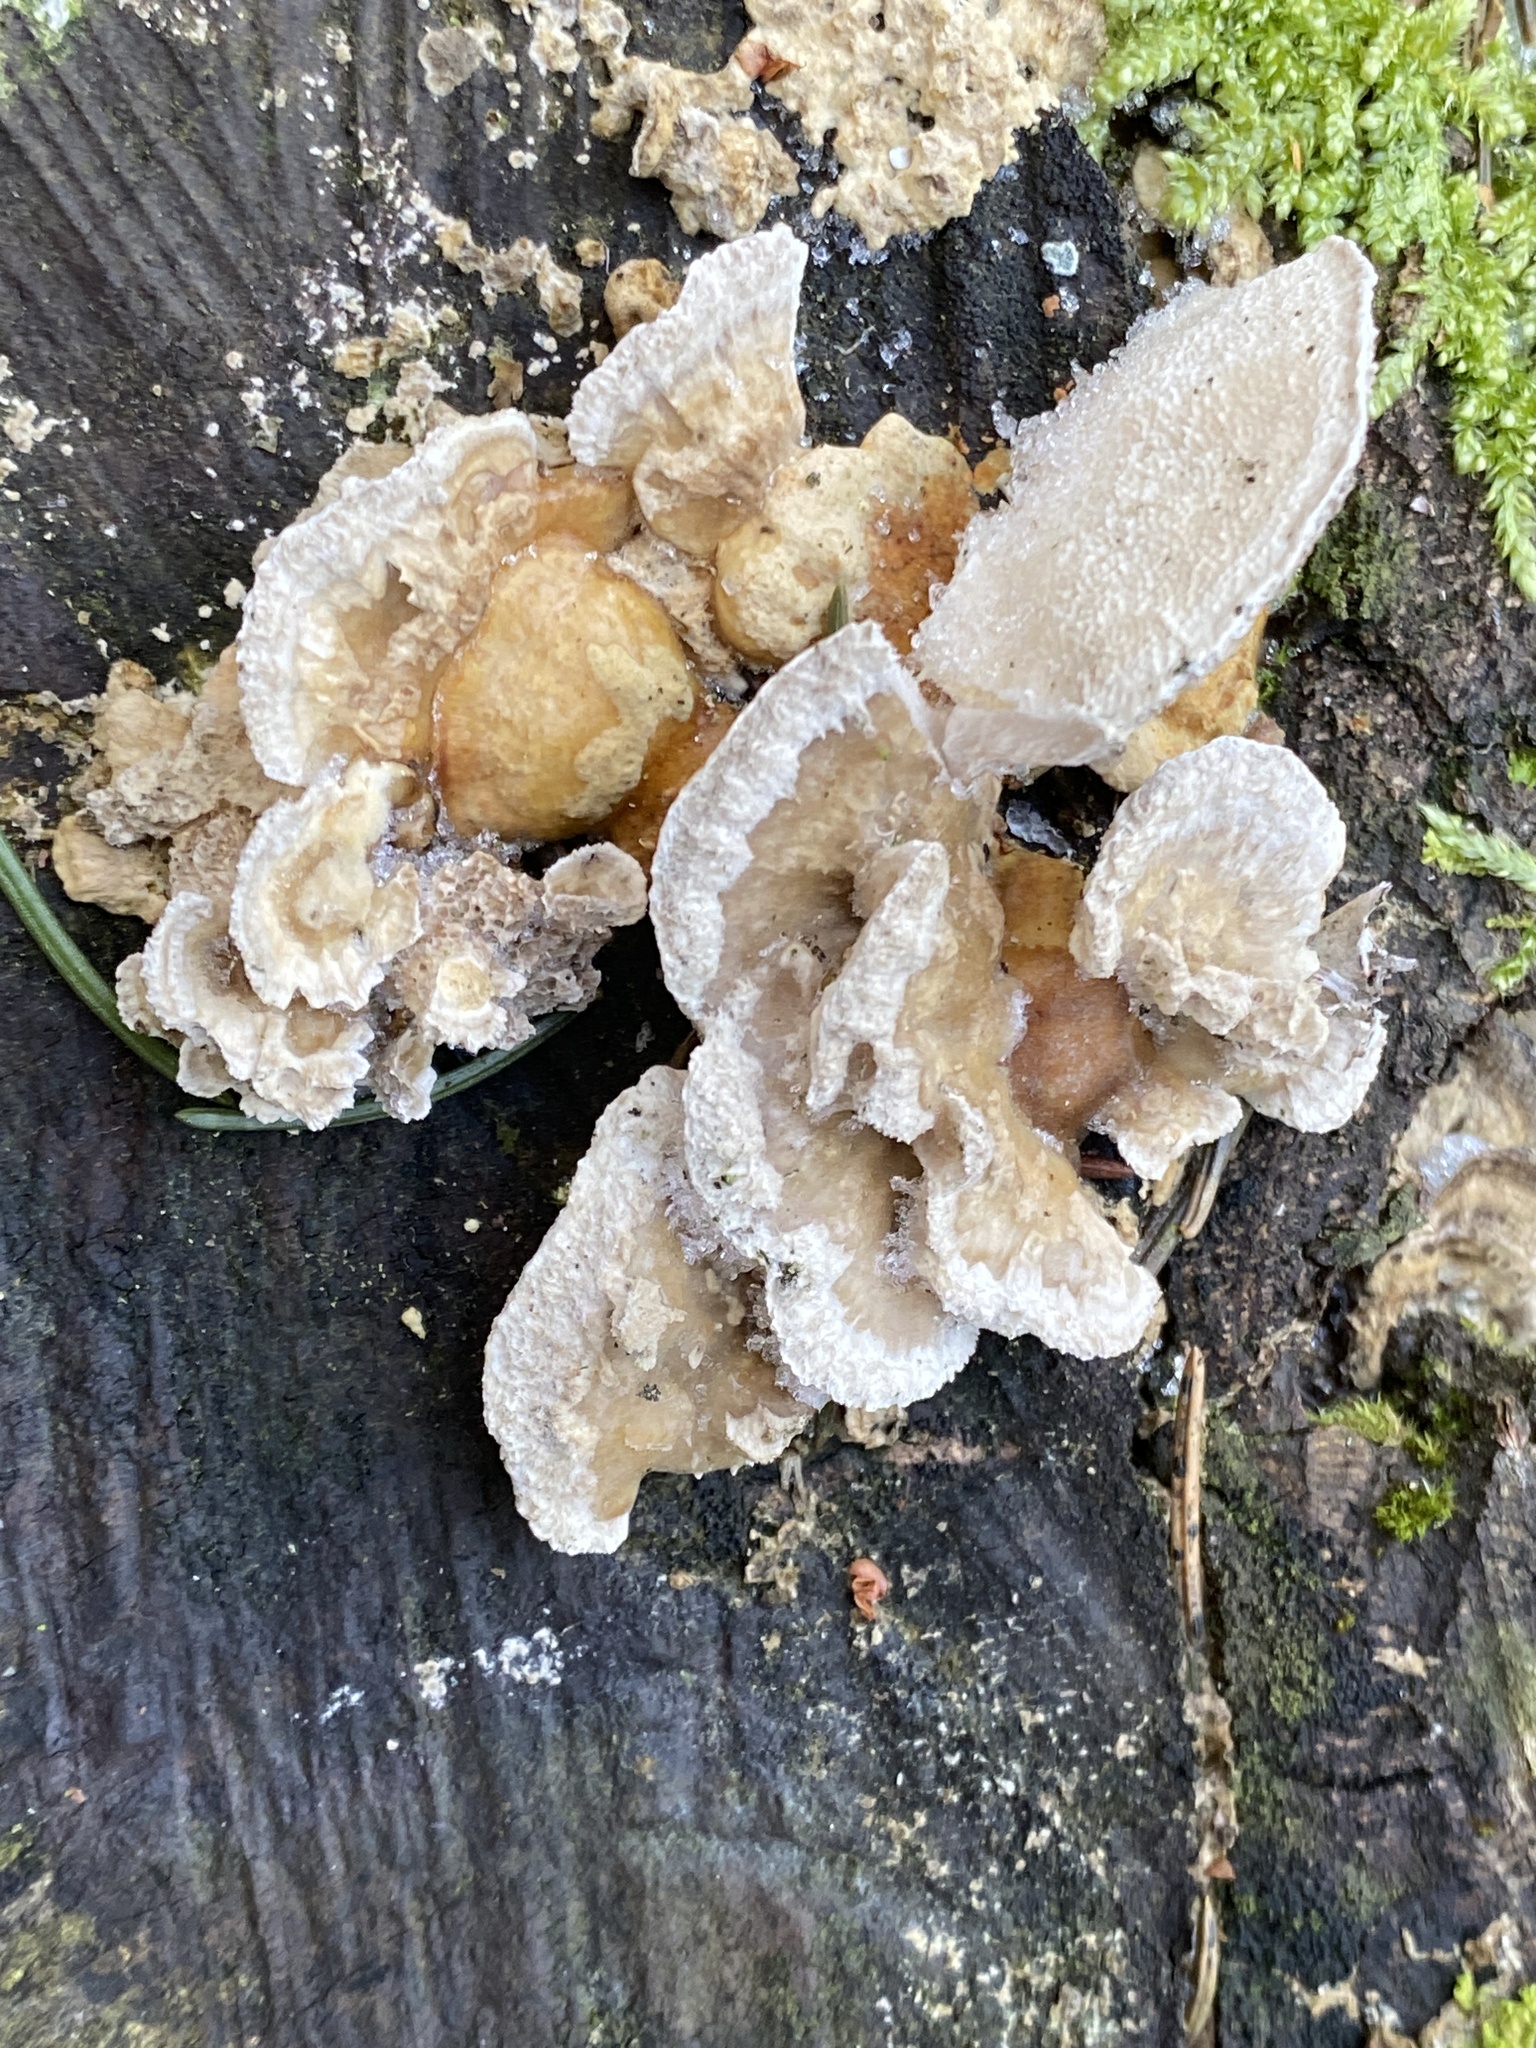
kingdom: Fungi
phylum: Basidiomycota
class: Agaricomycetes
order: Polyporales
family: Polyporaceae
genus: Trametes
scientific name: Trametes ochracea
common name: Ochre bracket
